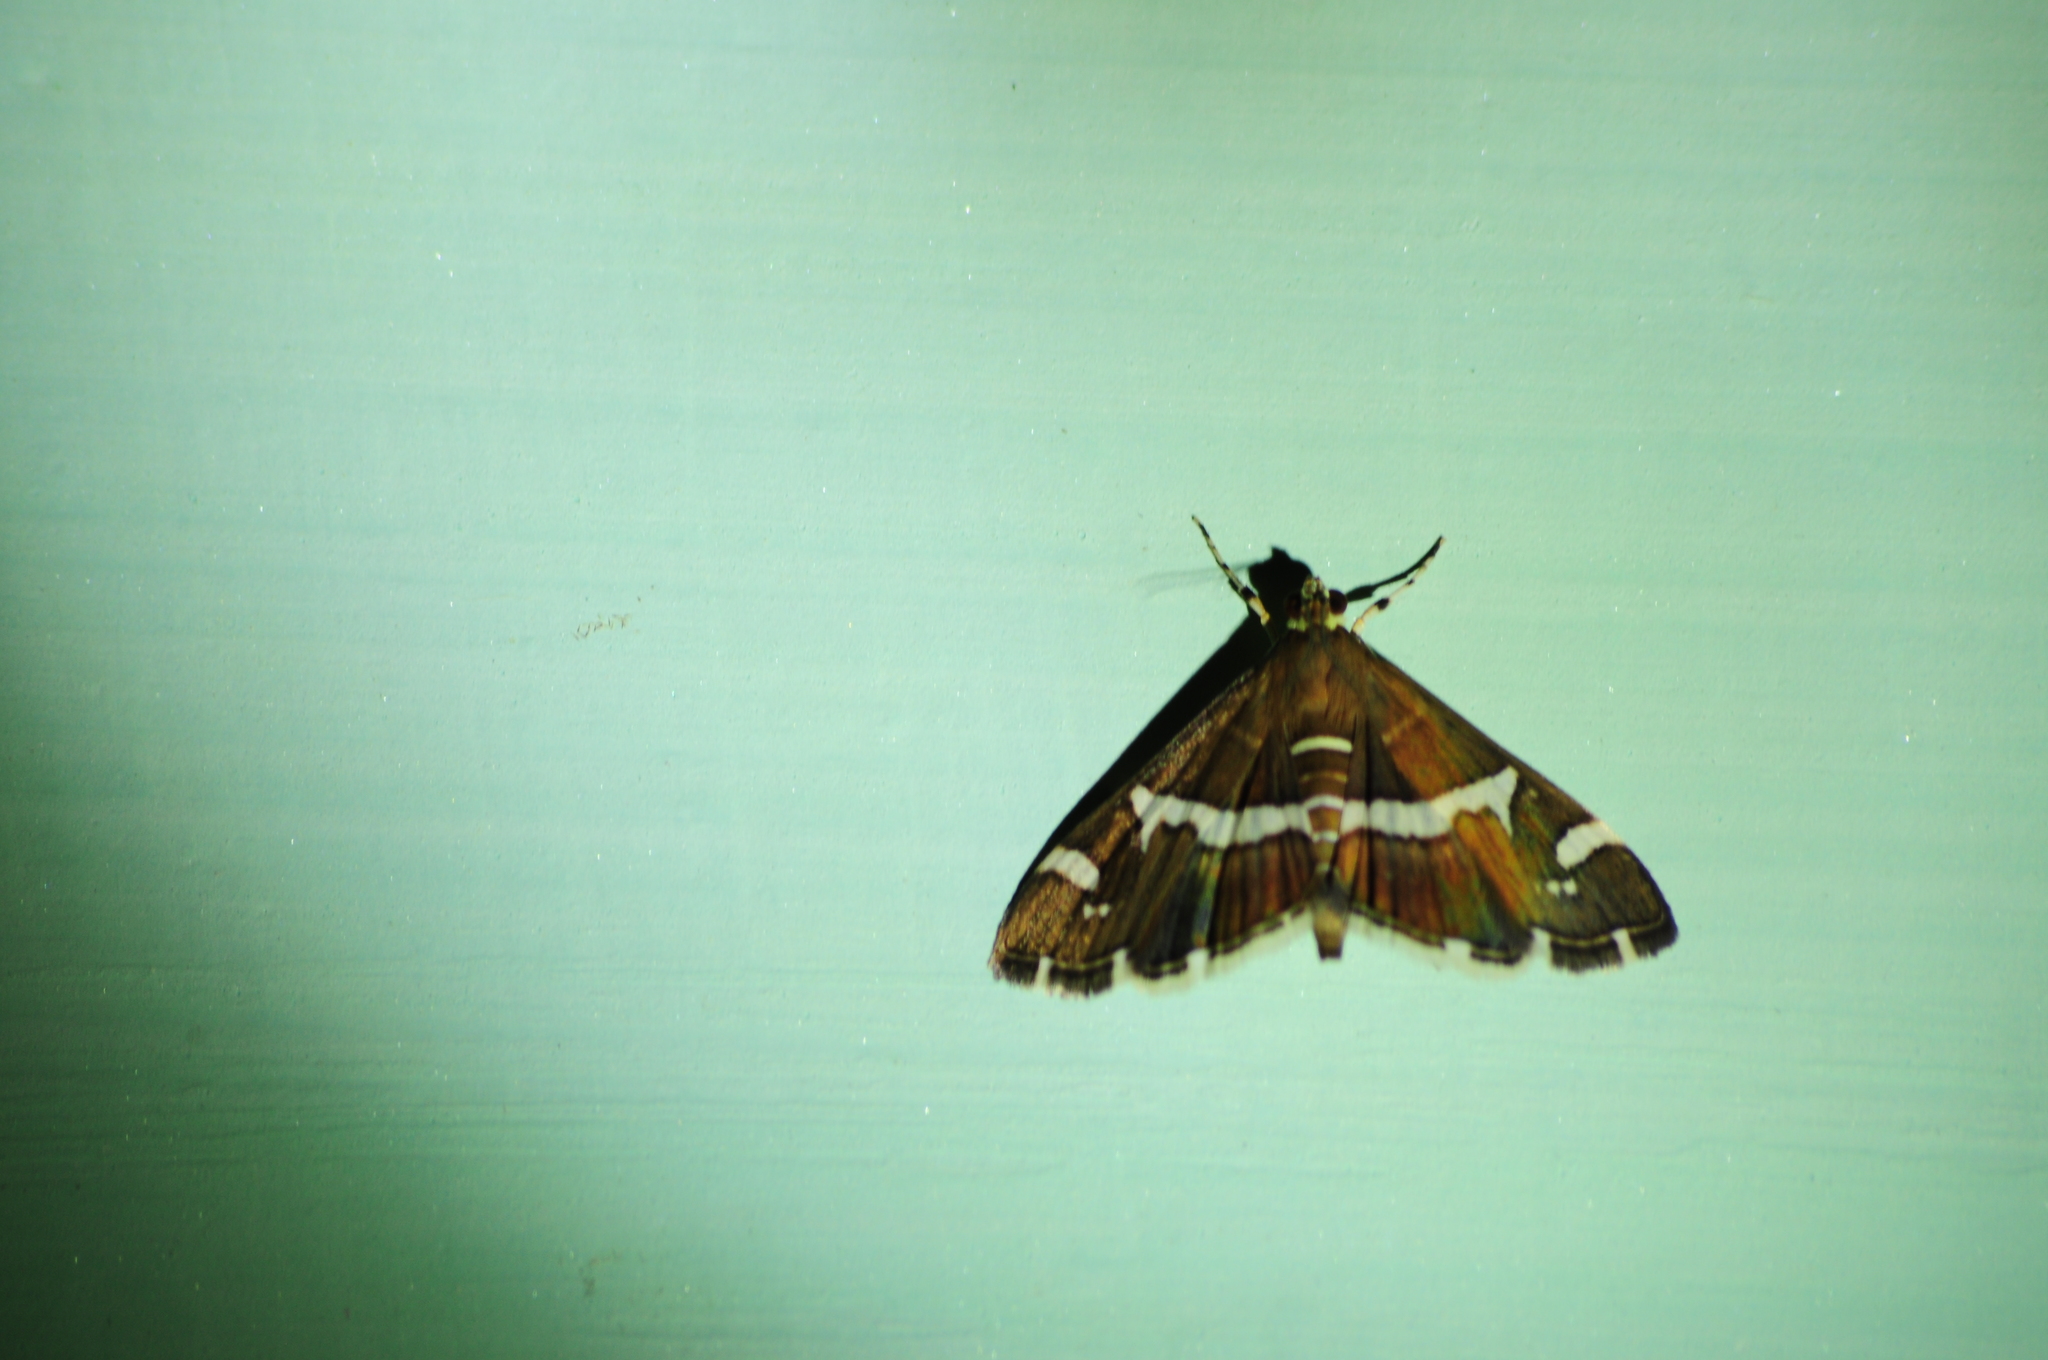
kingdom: Animalia
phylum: Arthropoda
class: Insecta
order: Lepidoptera
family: Crambidae
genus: Spoladea
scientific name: Spoladea recurvalis
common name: Beet webworm moth
